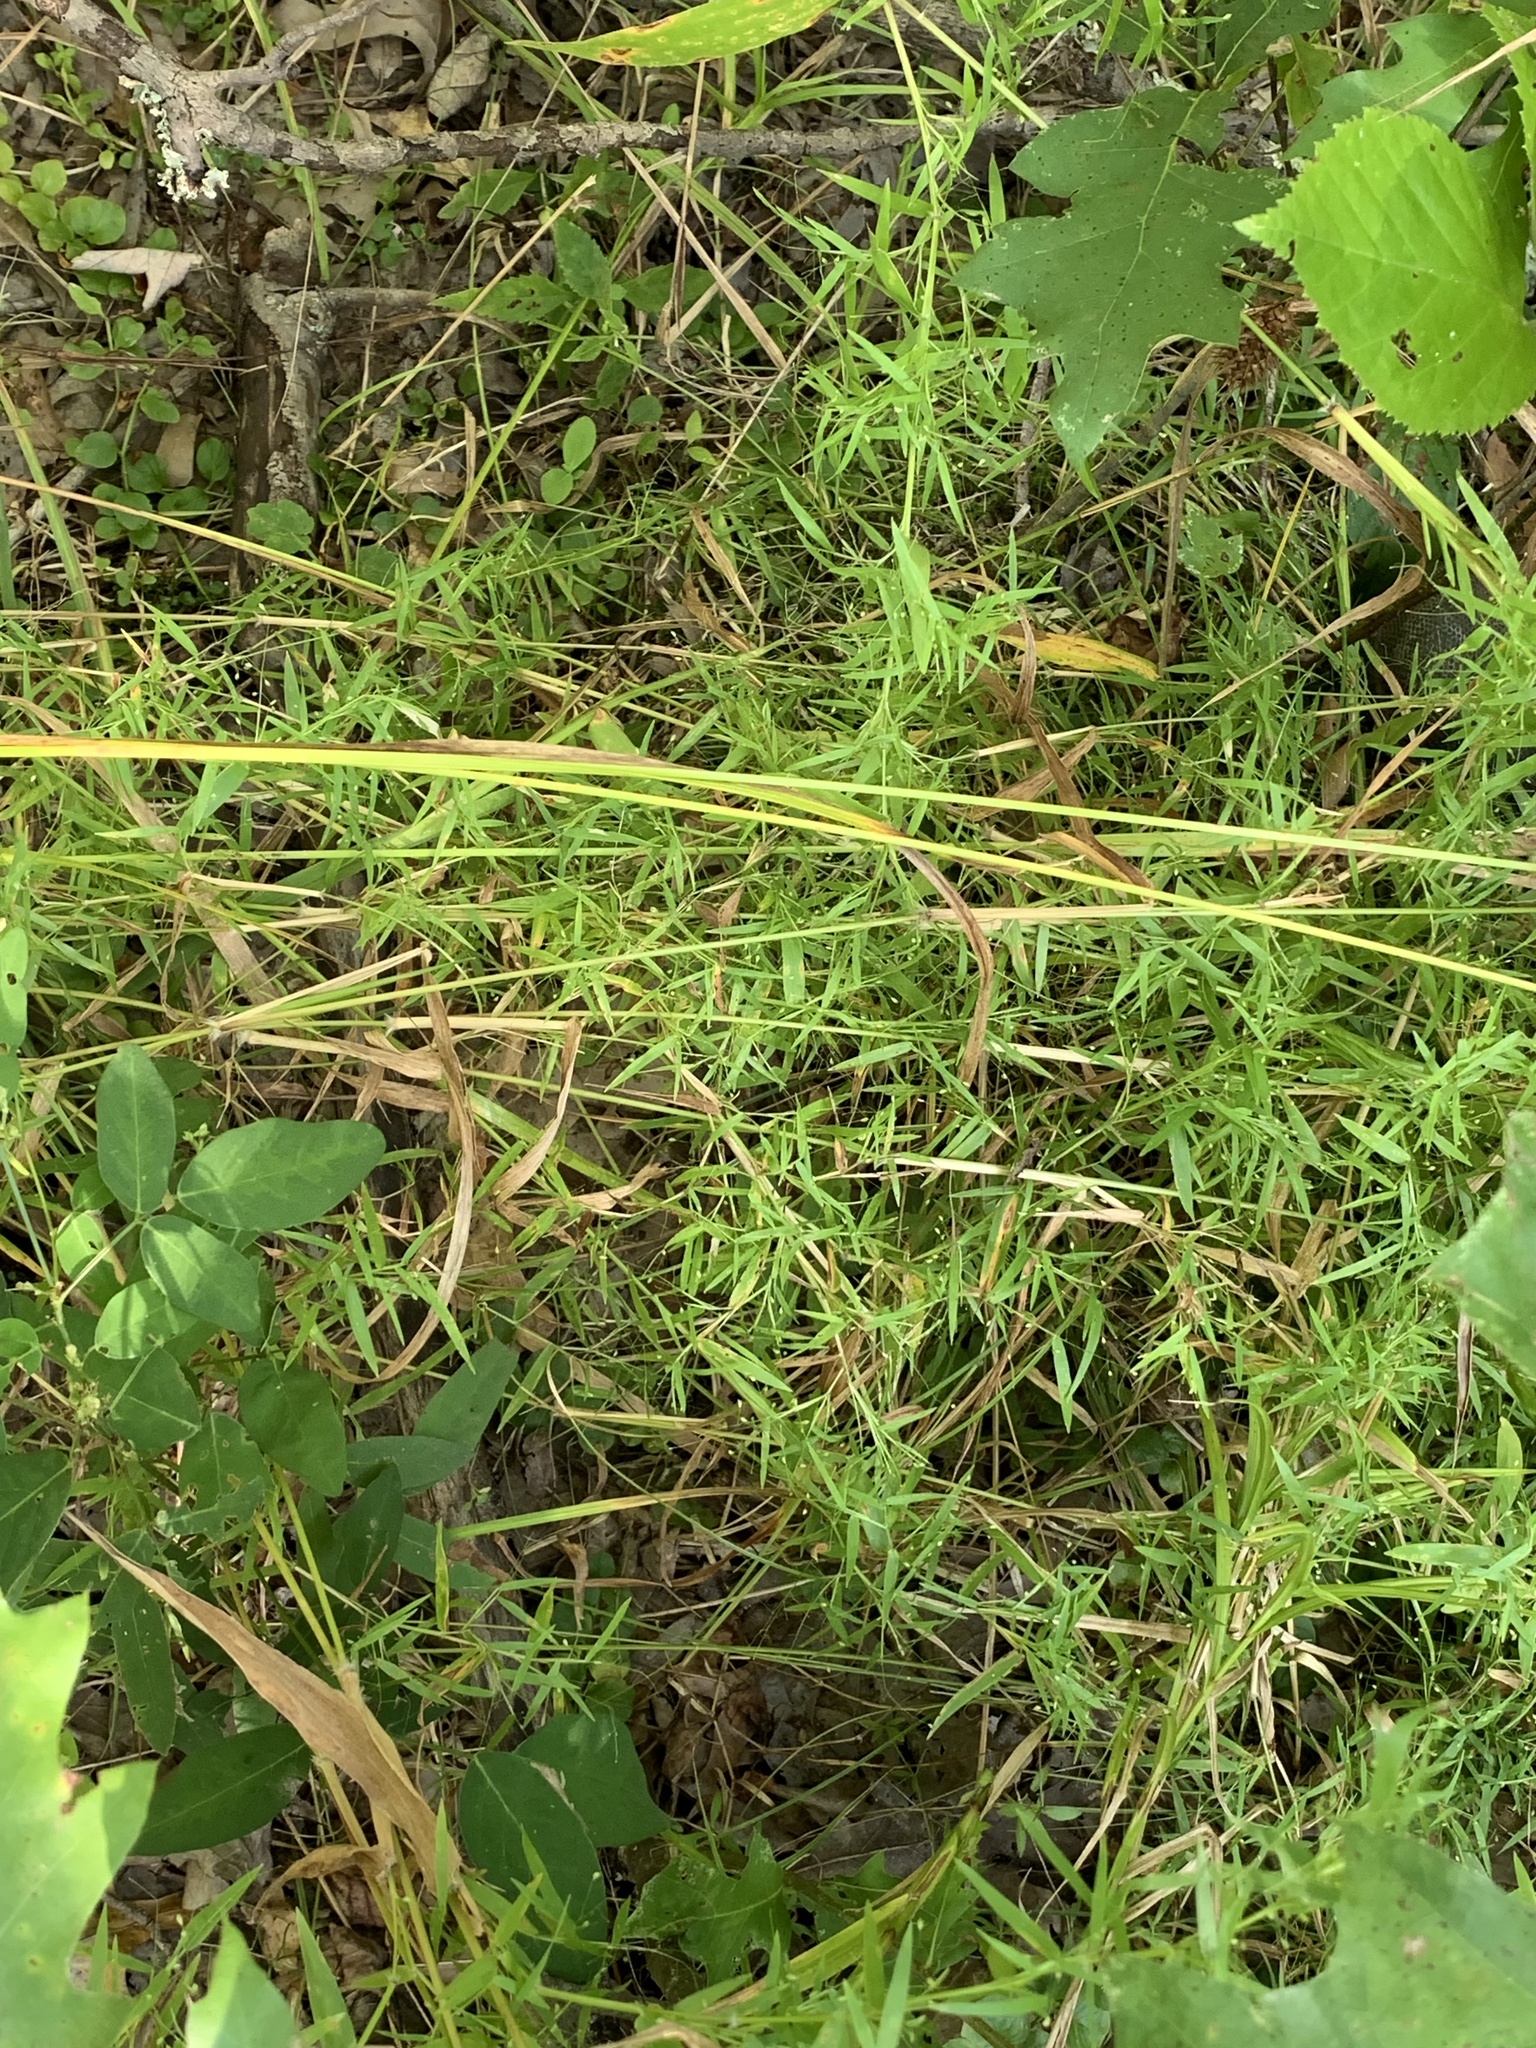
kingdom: Plantae
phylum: Tracheophyta
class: Liliopsida
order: Poales
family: Poaceae
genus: Dichanthelium
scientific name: Dichanthelium microcarpon
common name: Small-fruited witchgrass
